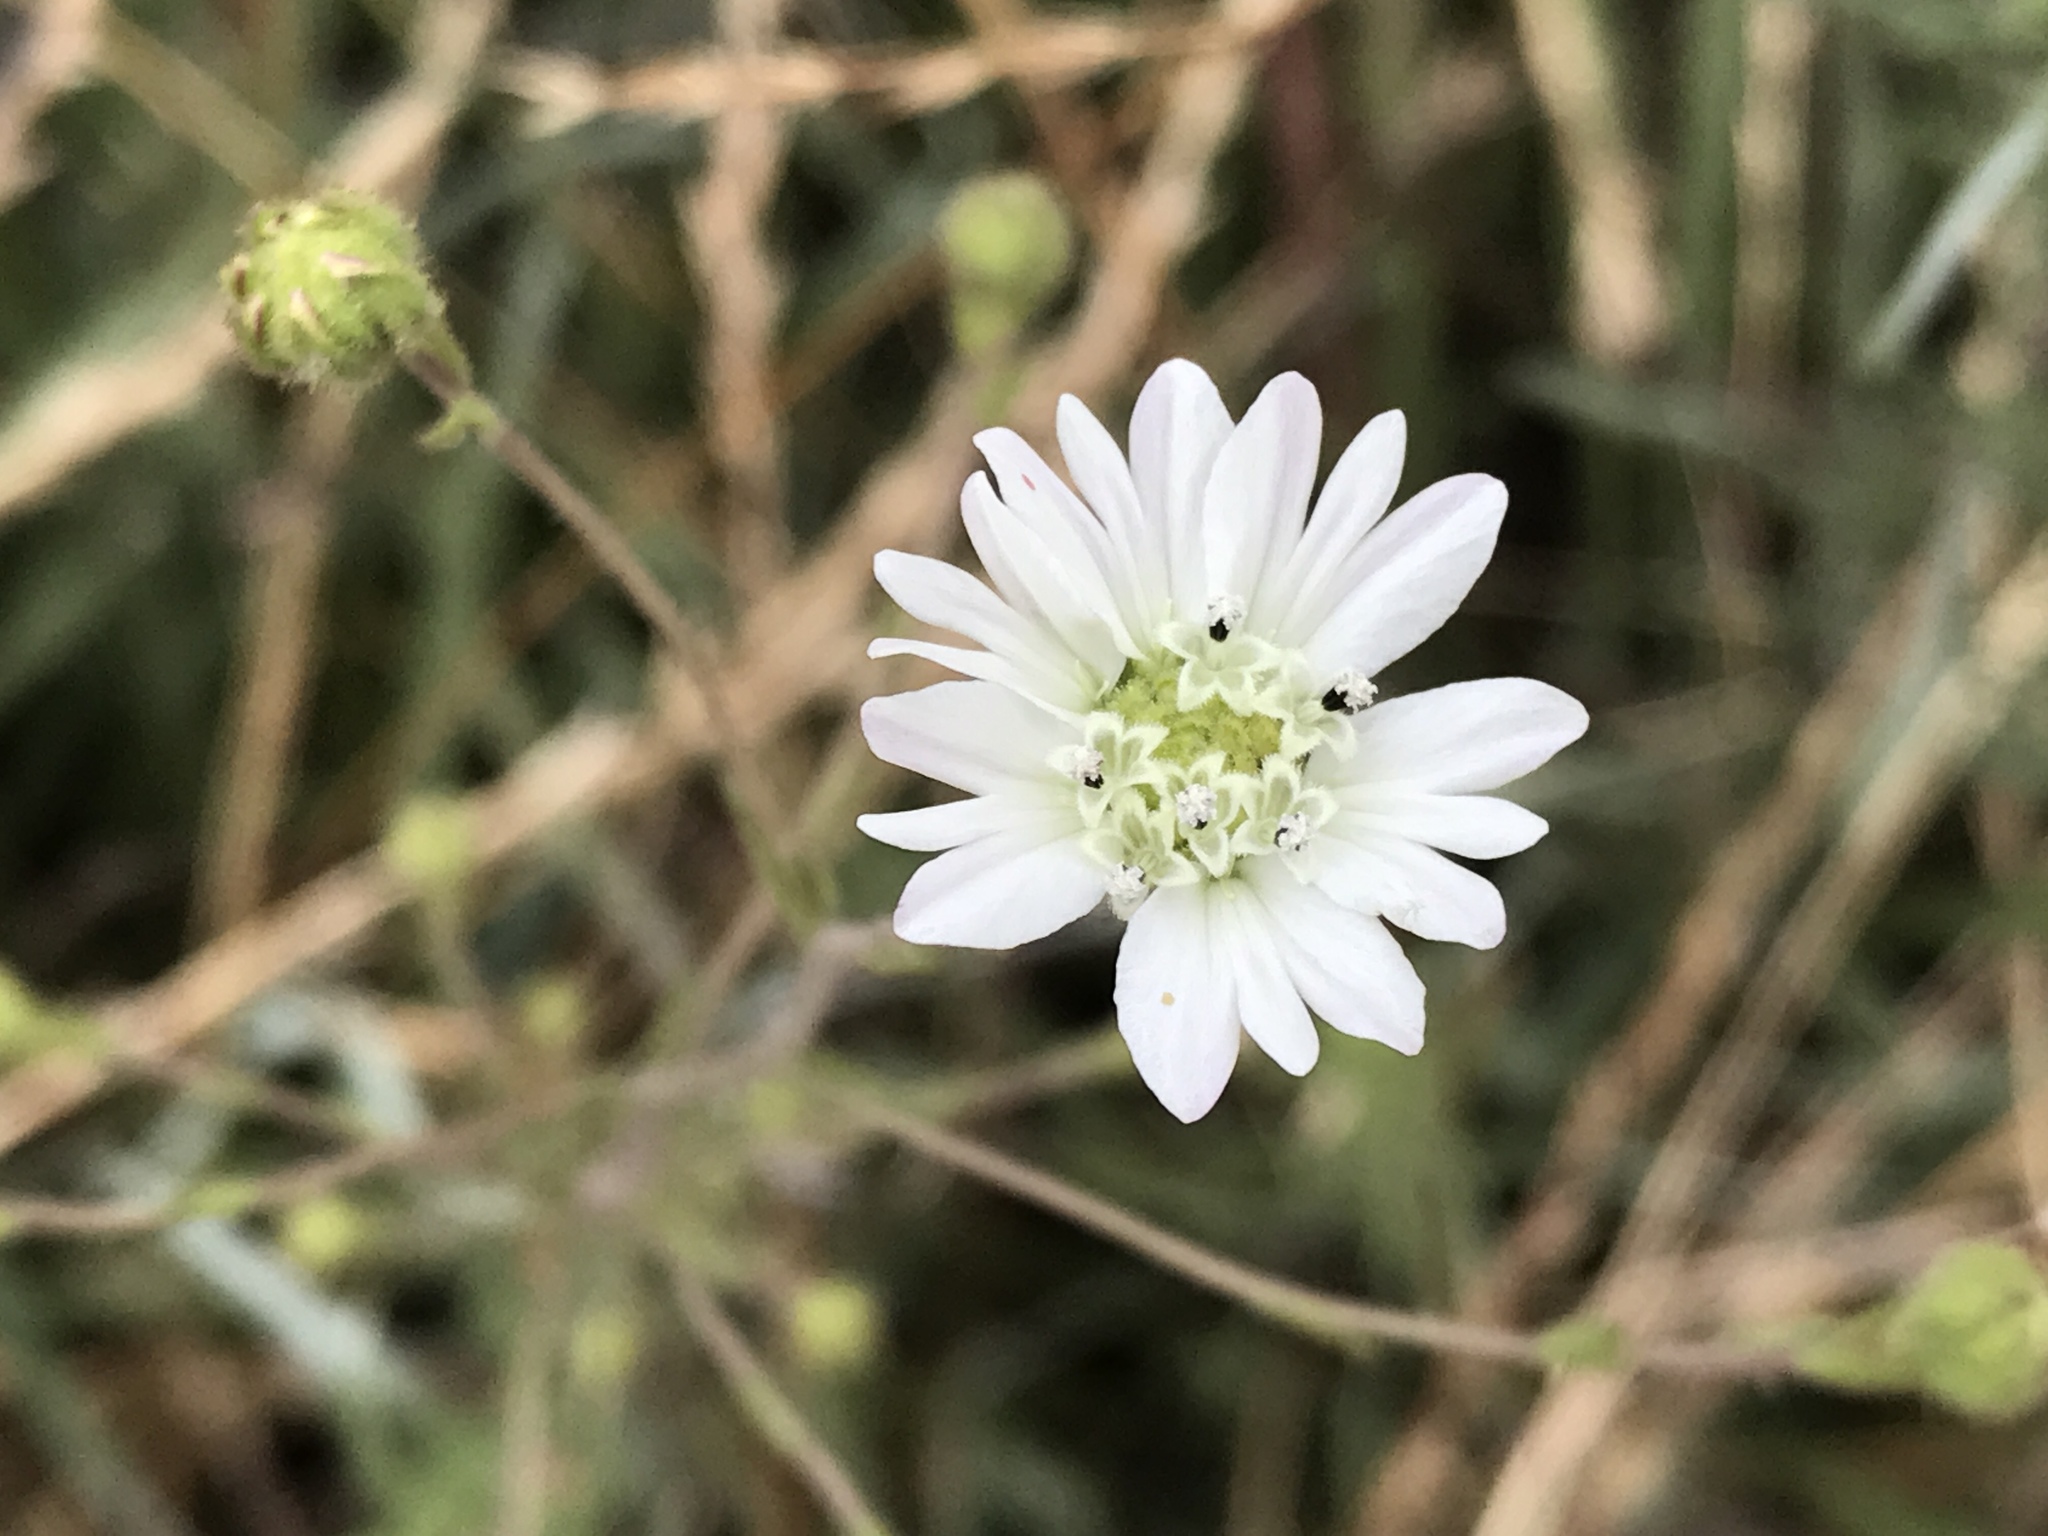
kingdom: Plantae
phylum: Tracheophyta
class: Magnoliopsida
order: Asterales
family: Asteraceae
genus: Hemizonia
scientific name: Hemizonia congesta
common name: Hayfield tarweed
